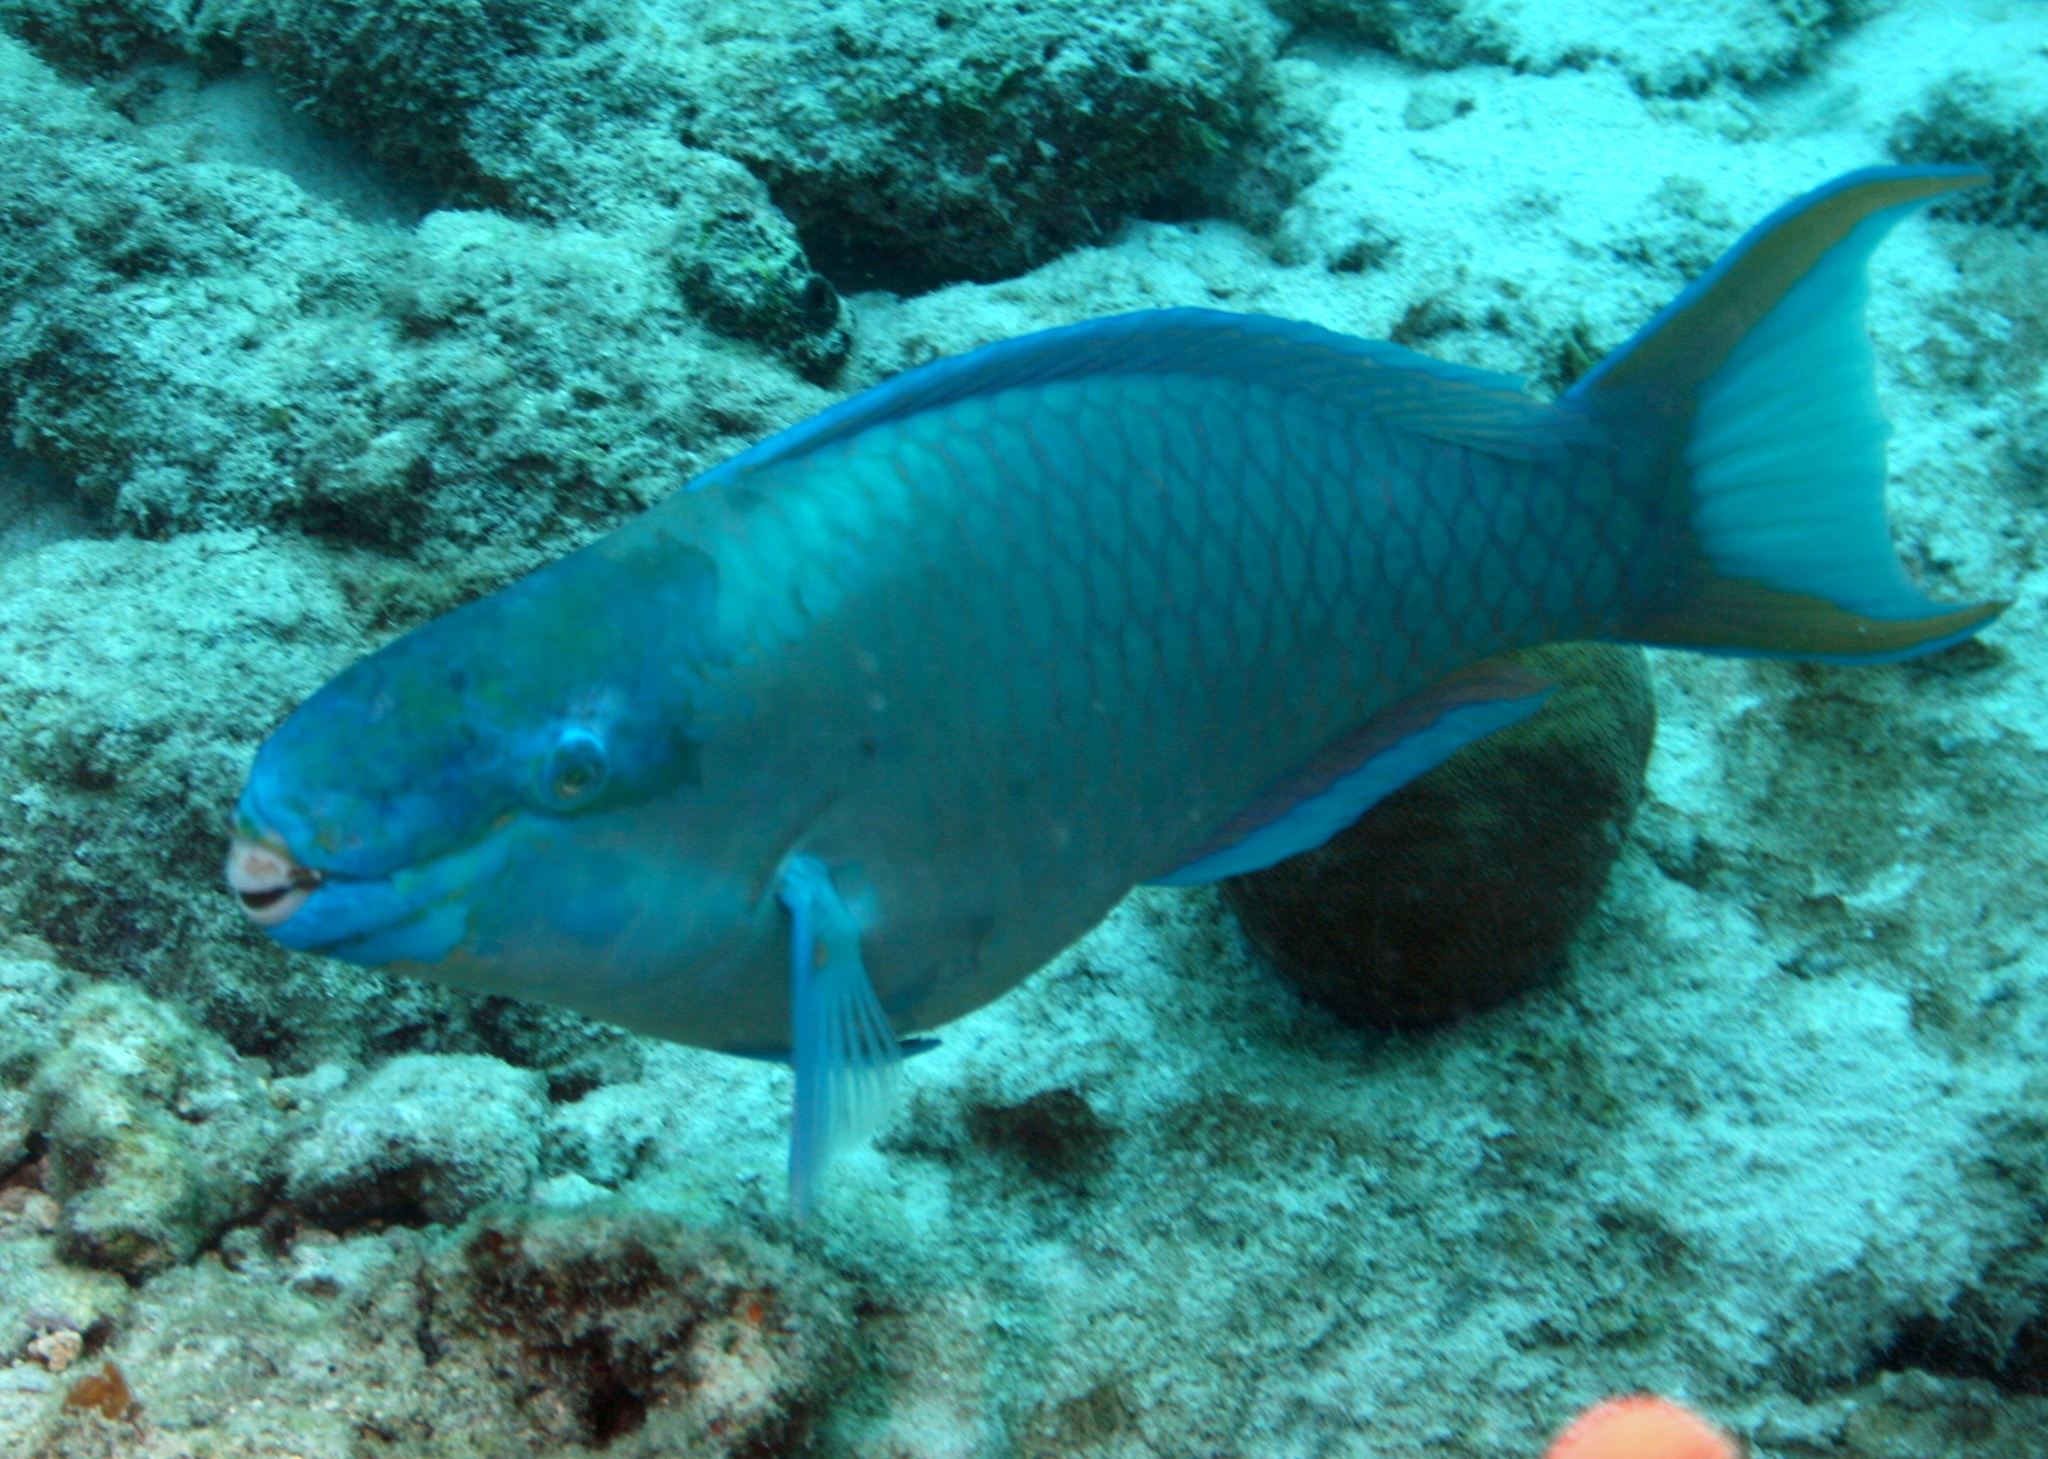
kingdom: Animalia
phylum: Chordata
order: Perciformes
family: Scaridae
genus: Scarus
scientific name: Scarus vetula
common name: Queen parrotfish
